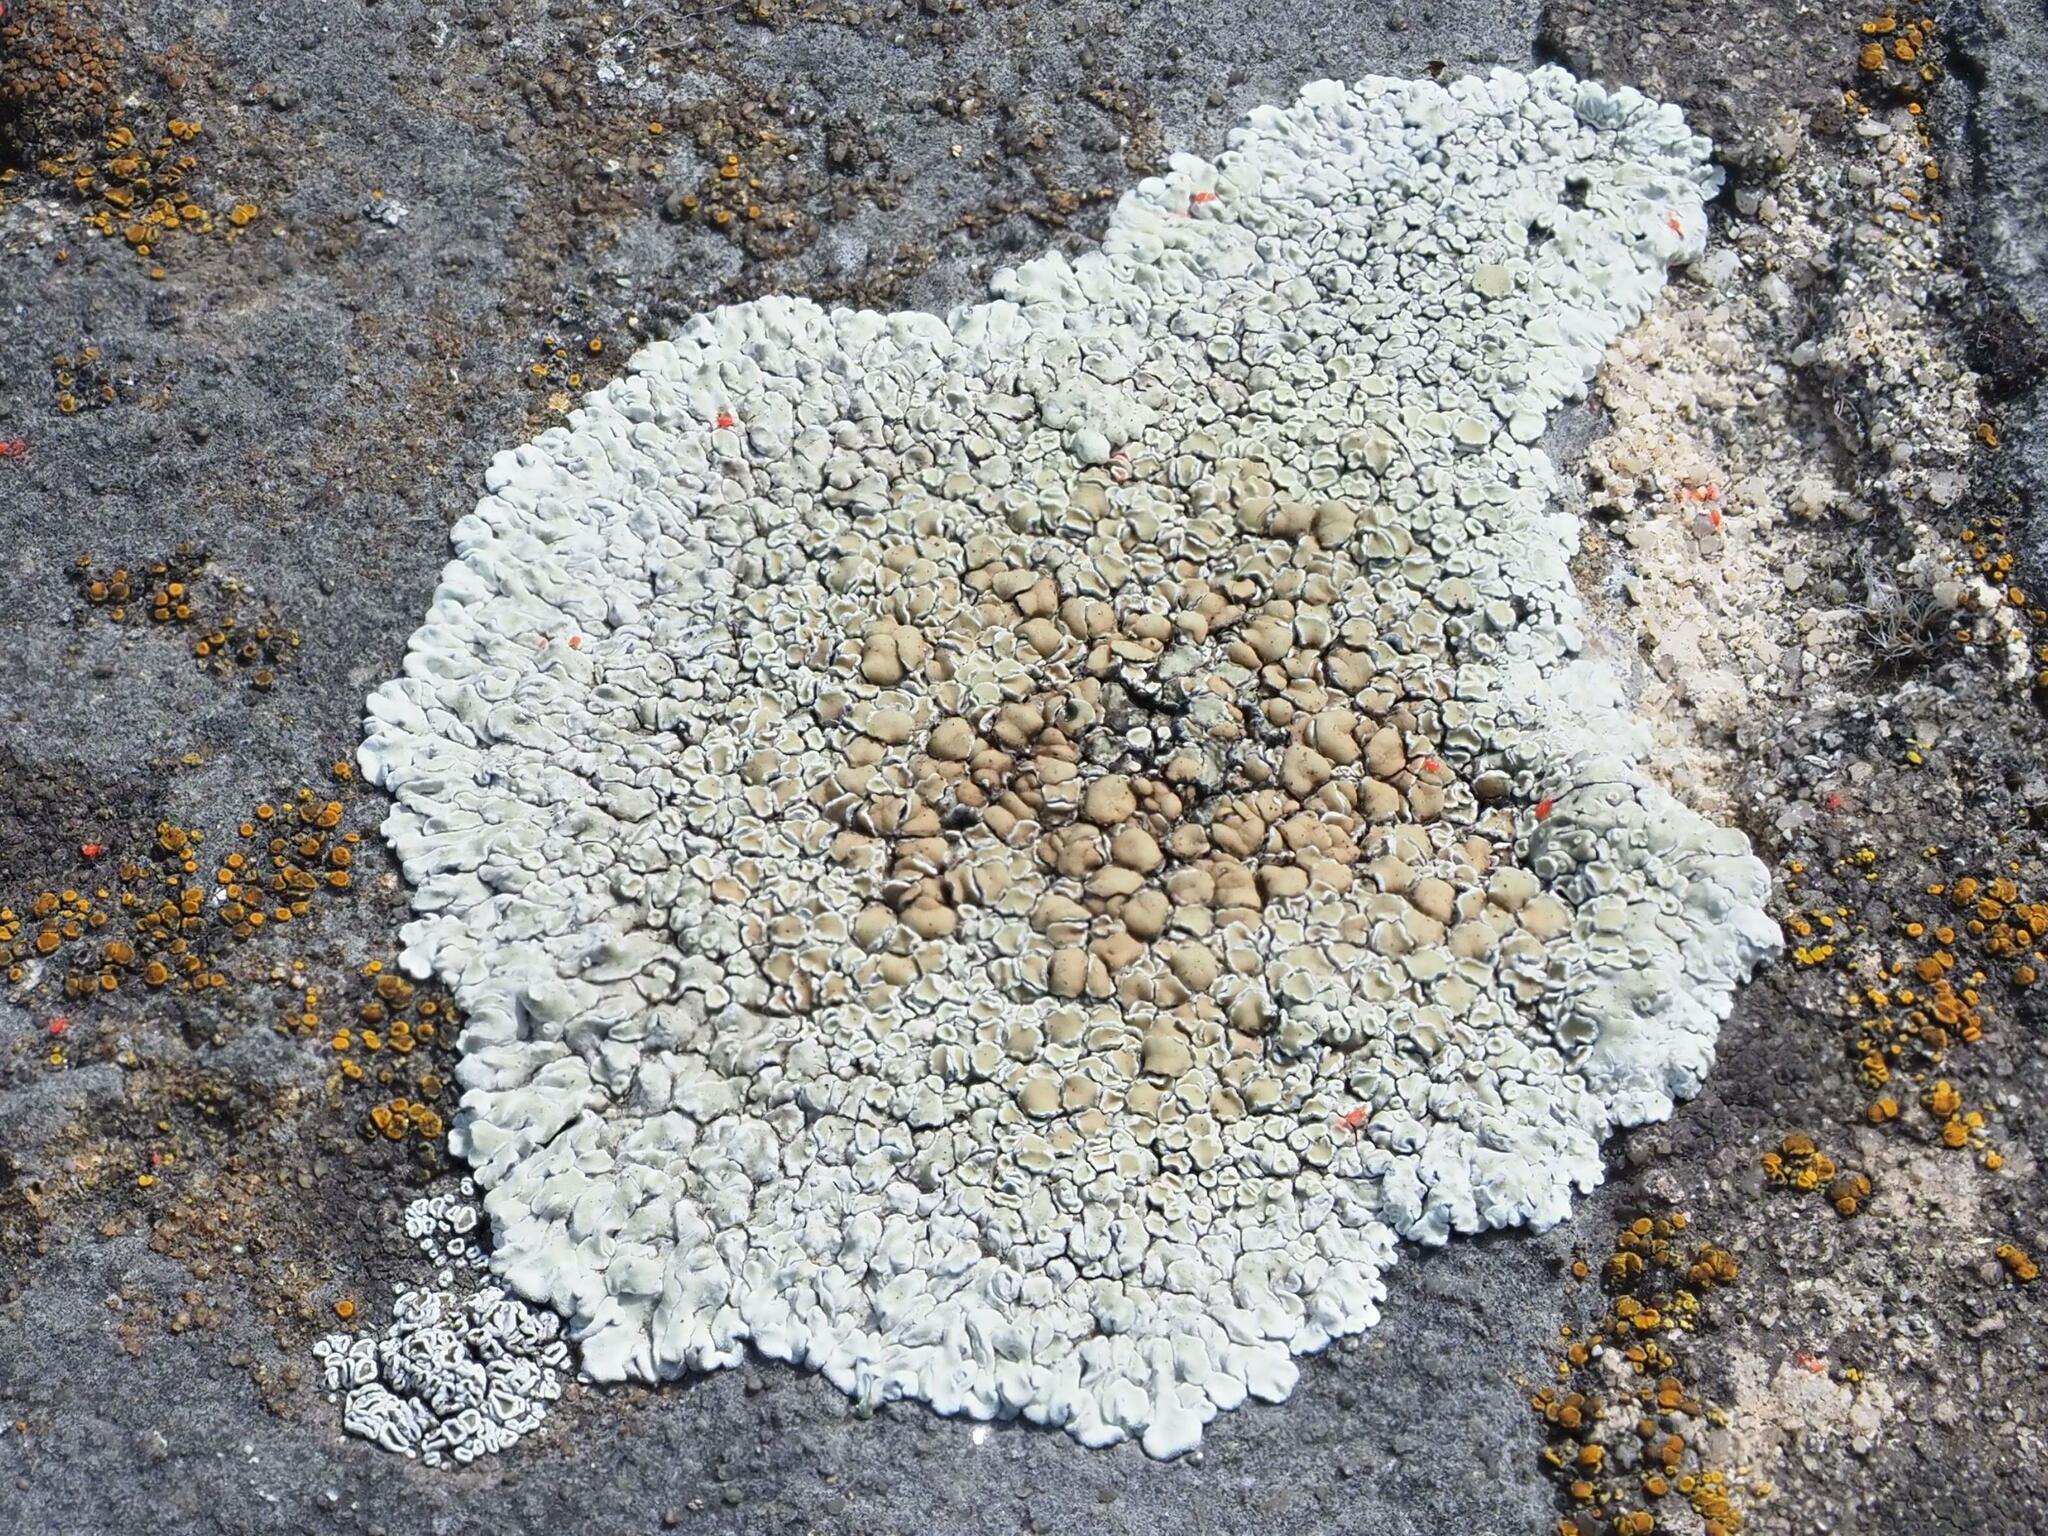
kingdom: Fungi
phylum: Ascomycota
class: Lecanoromycetes
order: Lecanorales
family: Lecanoraceae
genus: Protoparmeliopsis
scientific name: Protoparmeliopsis muralis
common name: Stonewall rim lichen
